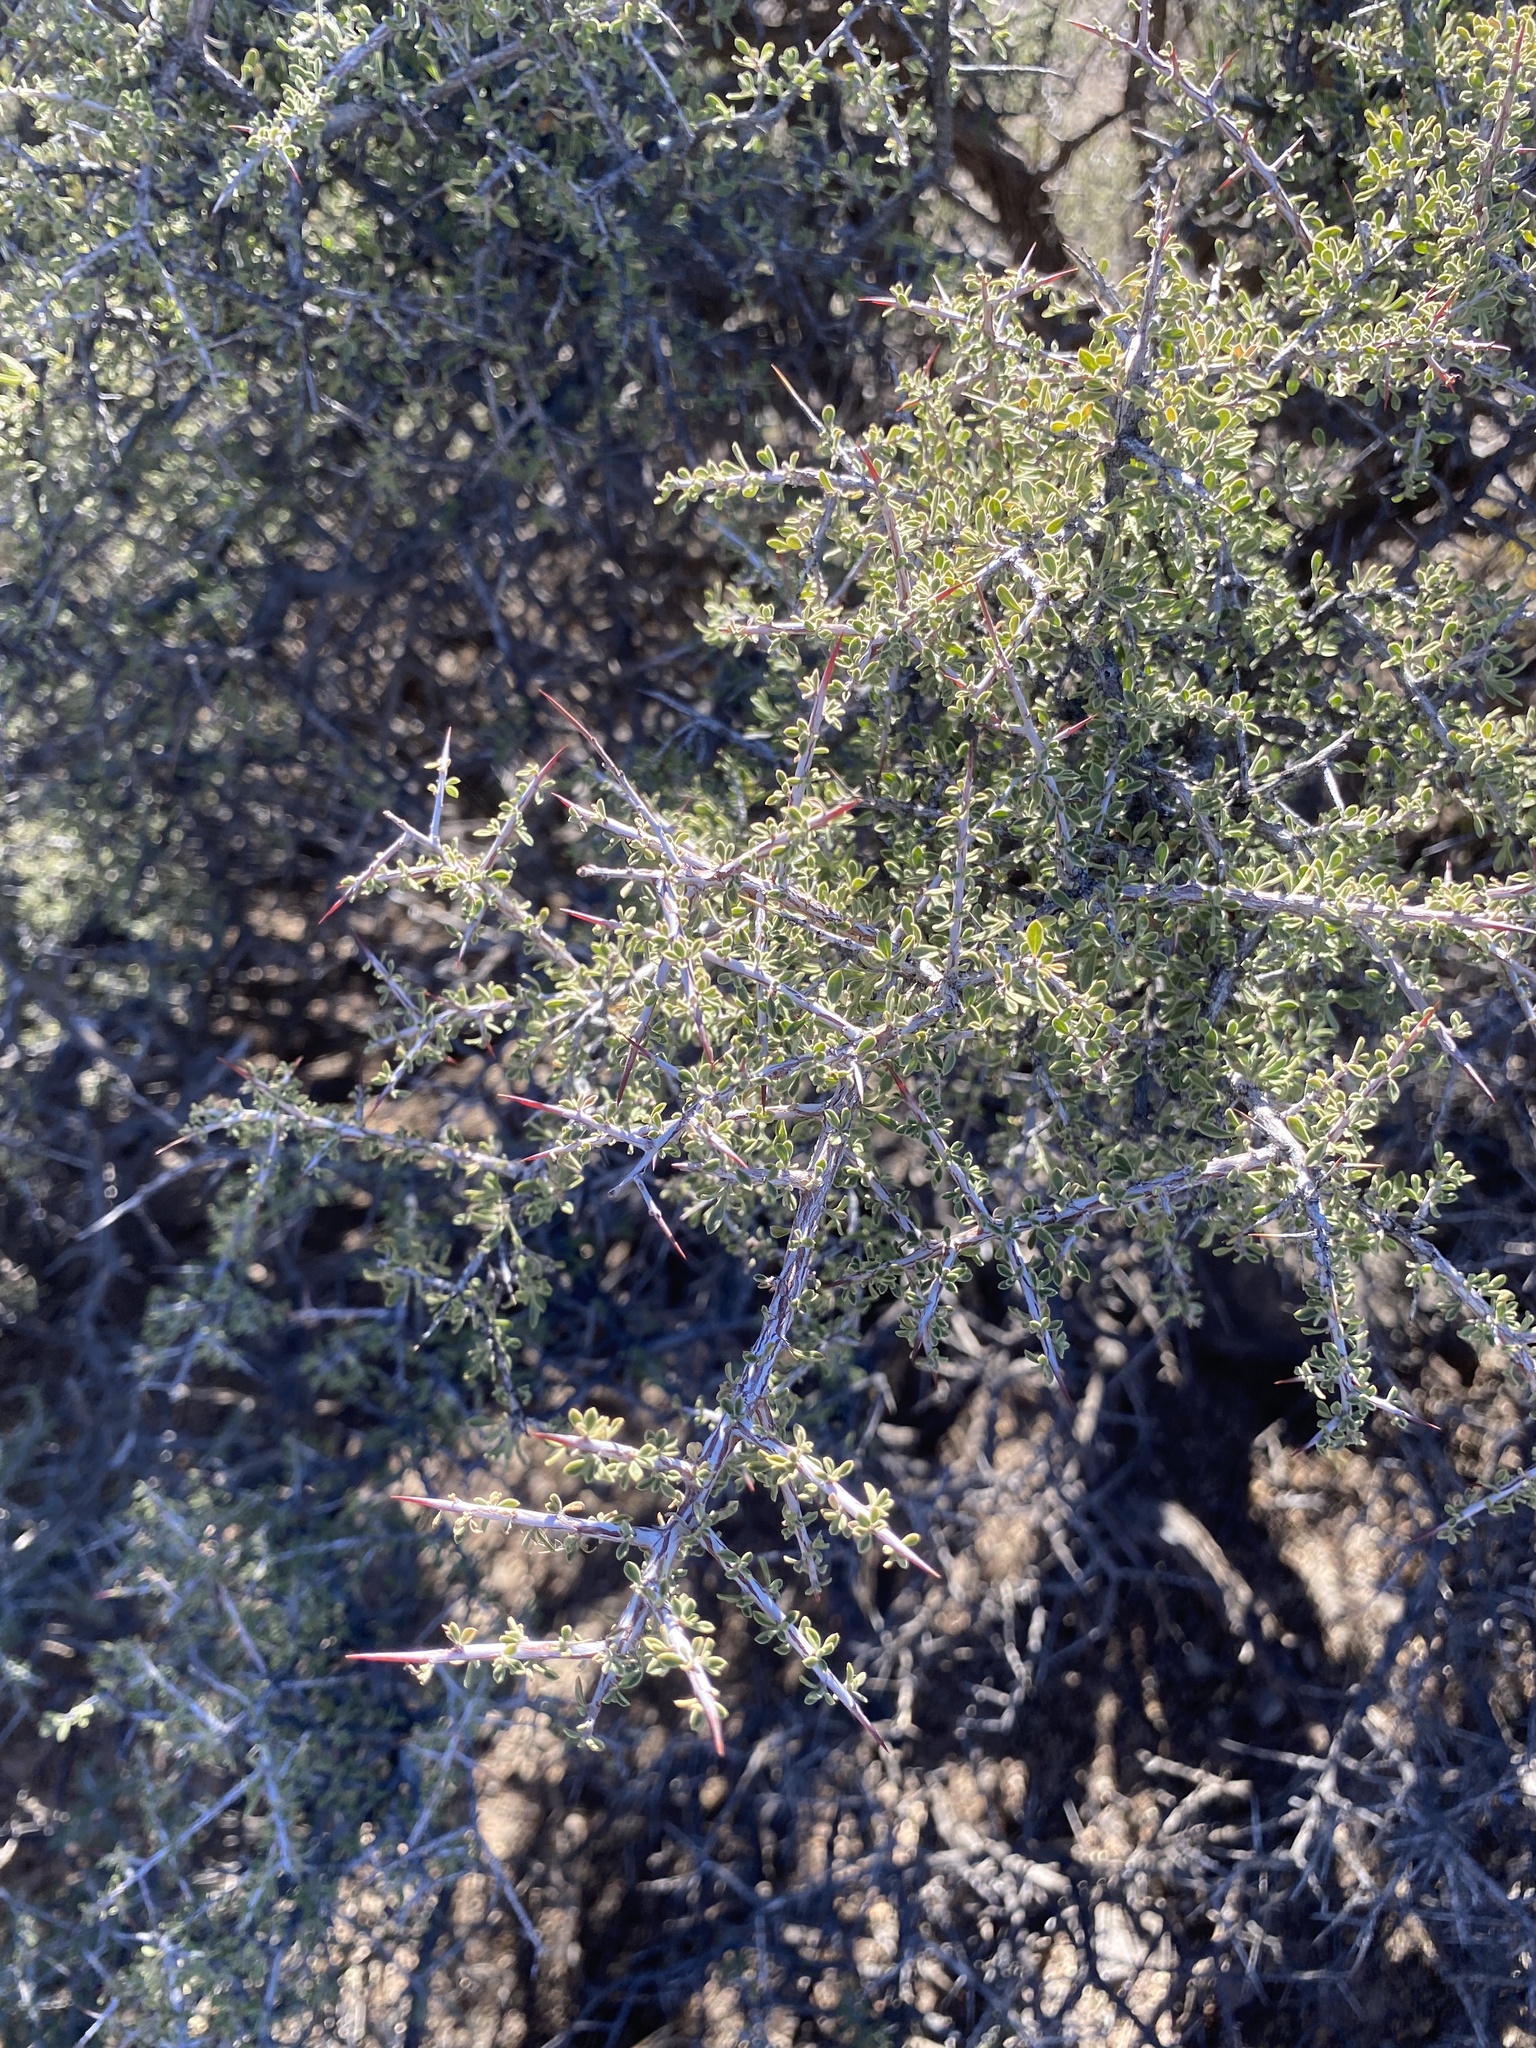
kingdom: Plantae
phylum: Tracheophyta
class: Magnoliopsida
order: Rosales
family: Rhamnaceae
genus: Condalia
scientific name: Condalia warnockii
